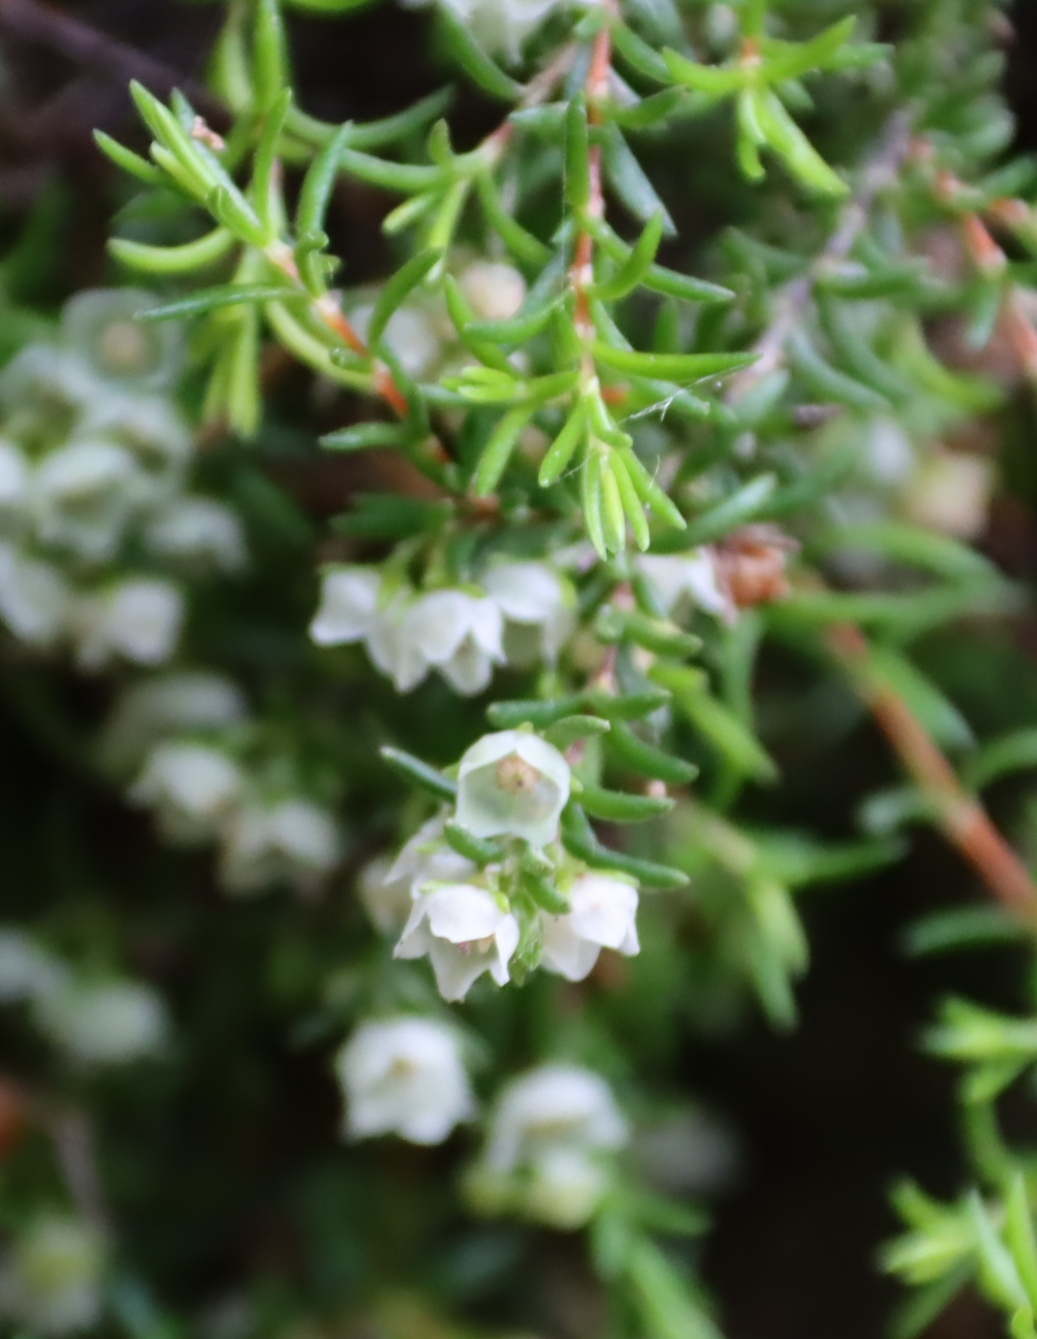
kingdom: Plantae
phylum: Tracheophyta
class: Magnoliopsida
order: Ericales
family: Ericaceae
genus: Erica
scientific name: Erica tenuis
